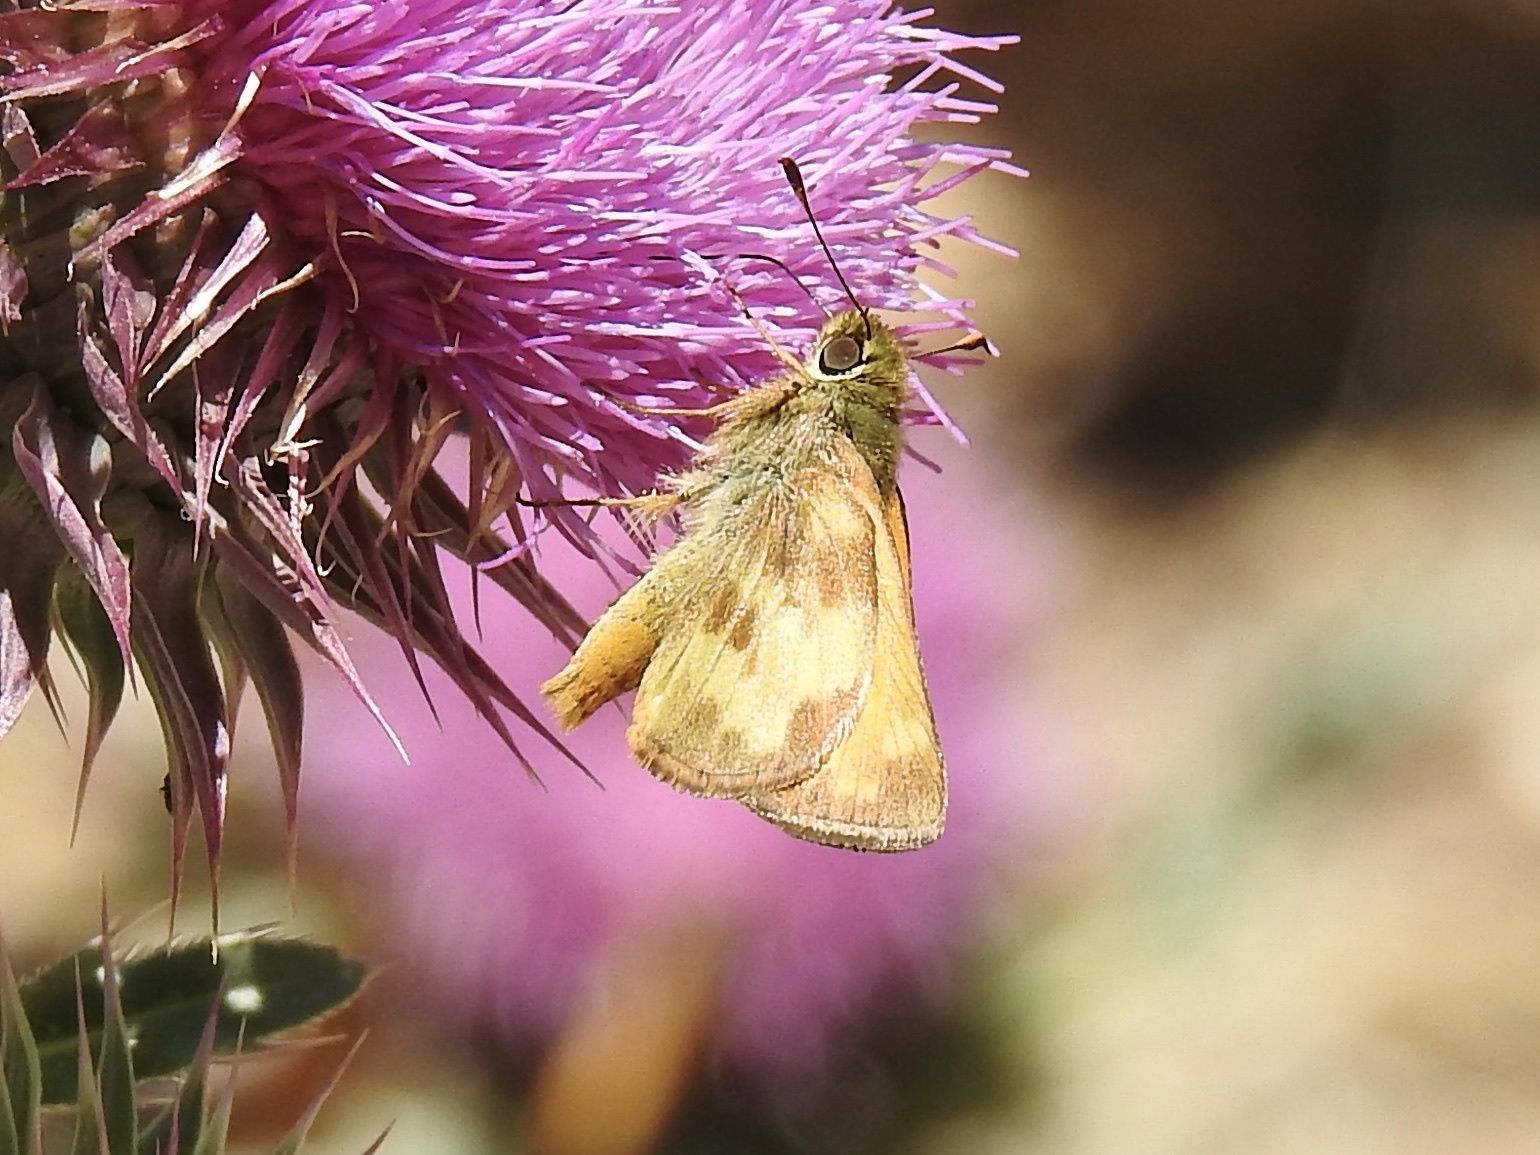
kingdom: Animalia
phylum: Arthropoda
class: Insecta
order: Lepidoptera
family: Hesperiidae
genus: Lon
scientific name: Lon taxiles
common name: Taxiles skipper
